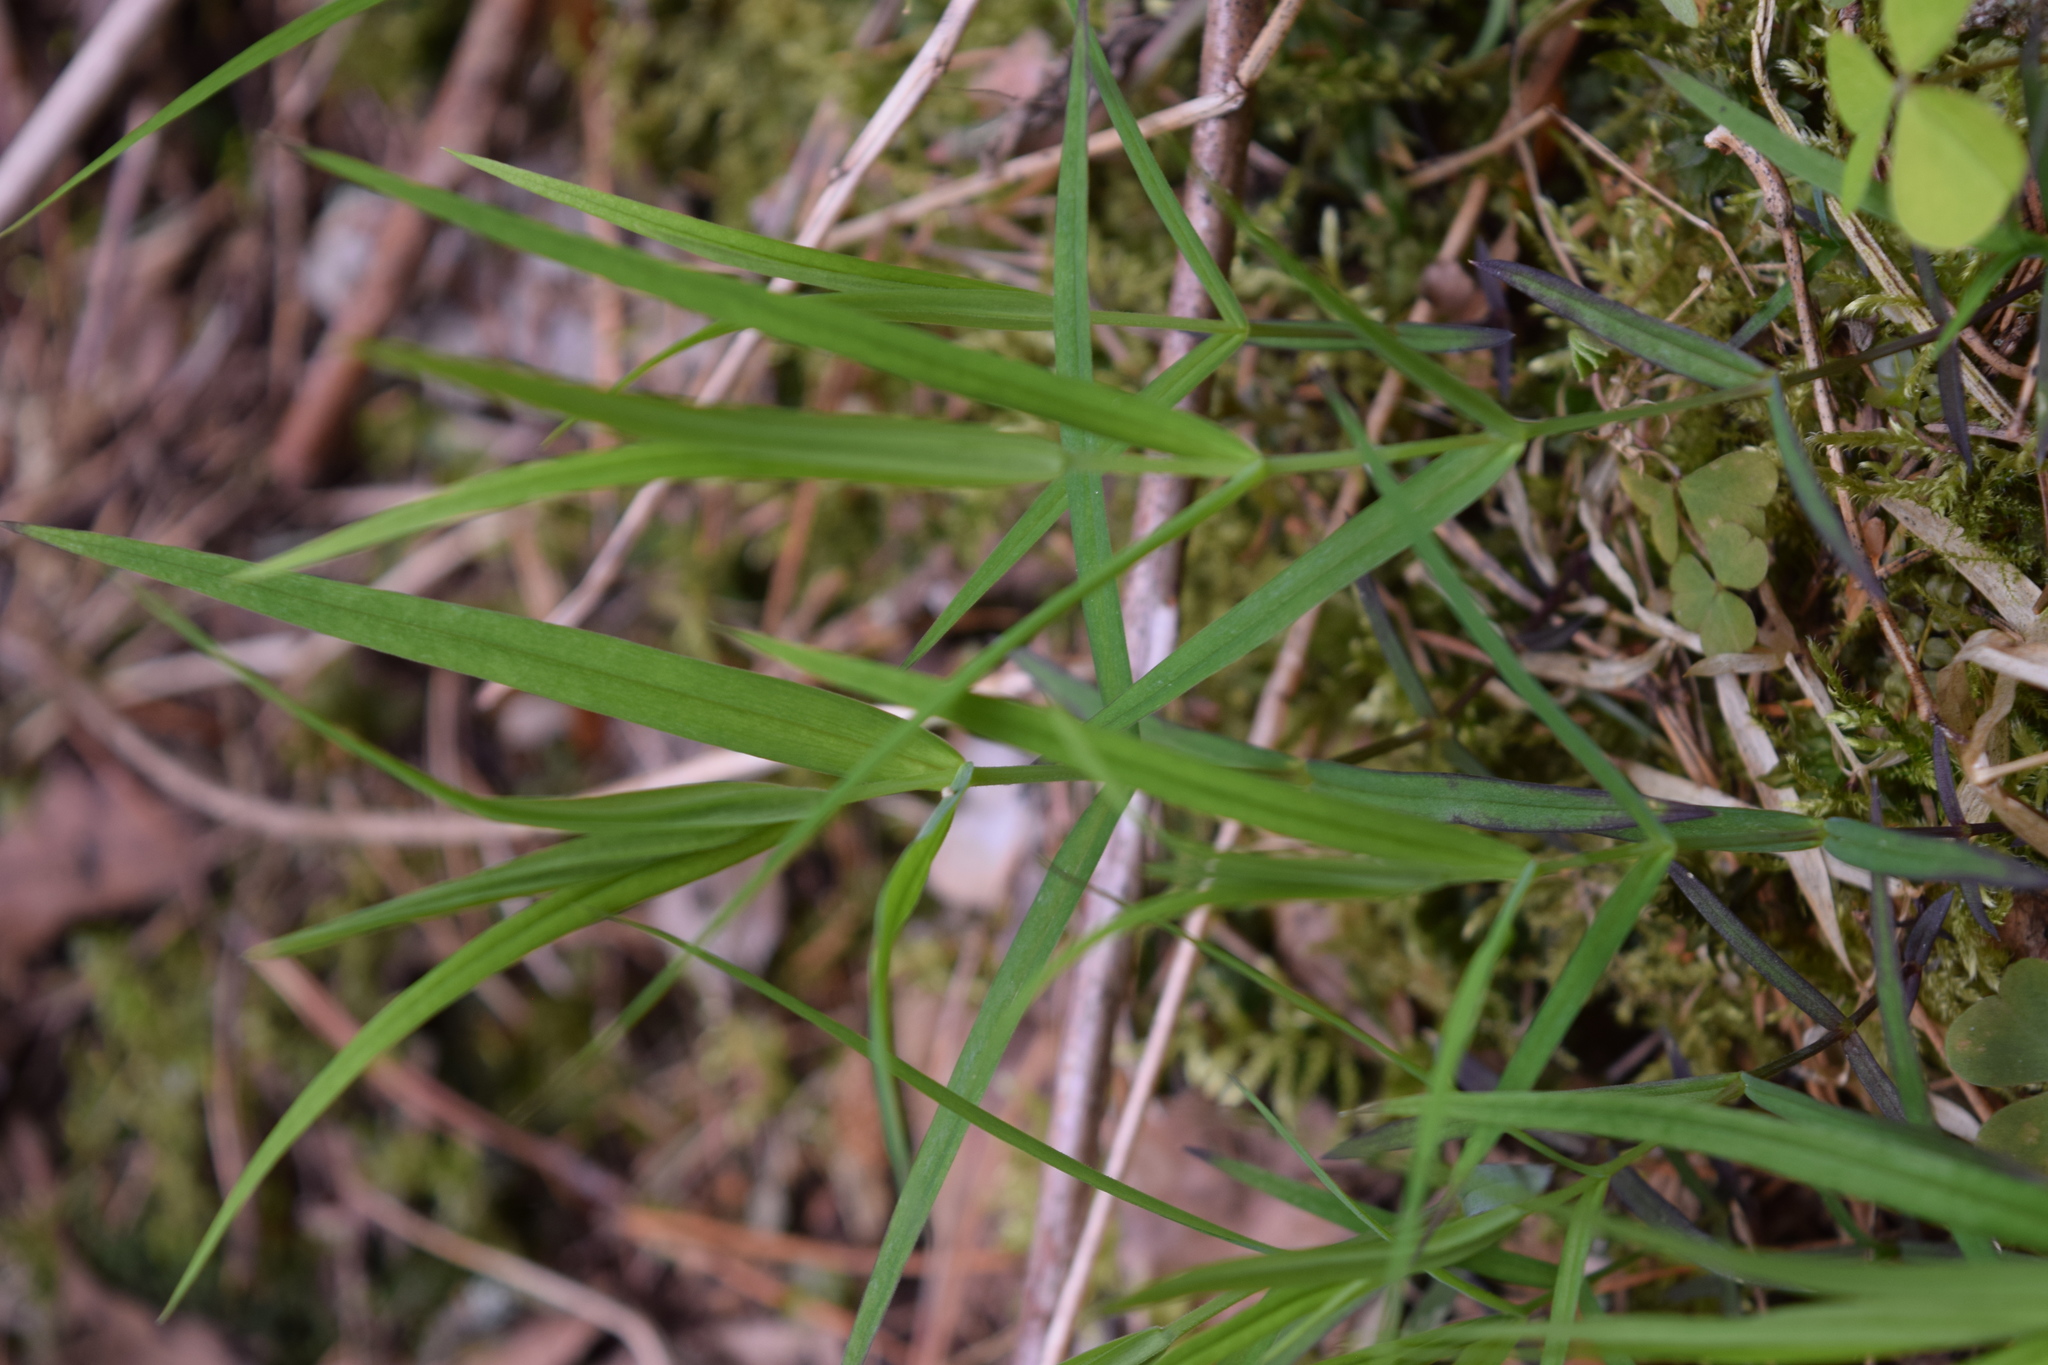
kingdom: Plantae
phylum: Tracheophyta
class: Magnoliopsida
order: Caryophyllales
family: Caryophyllaceae
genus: Rabelera
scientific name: Rabelera holostea
